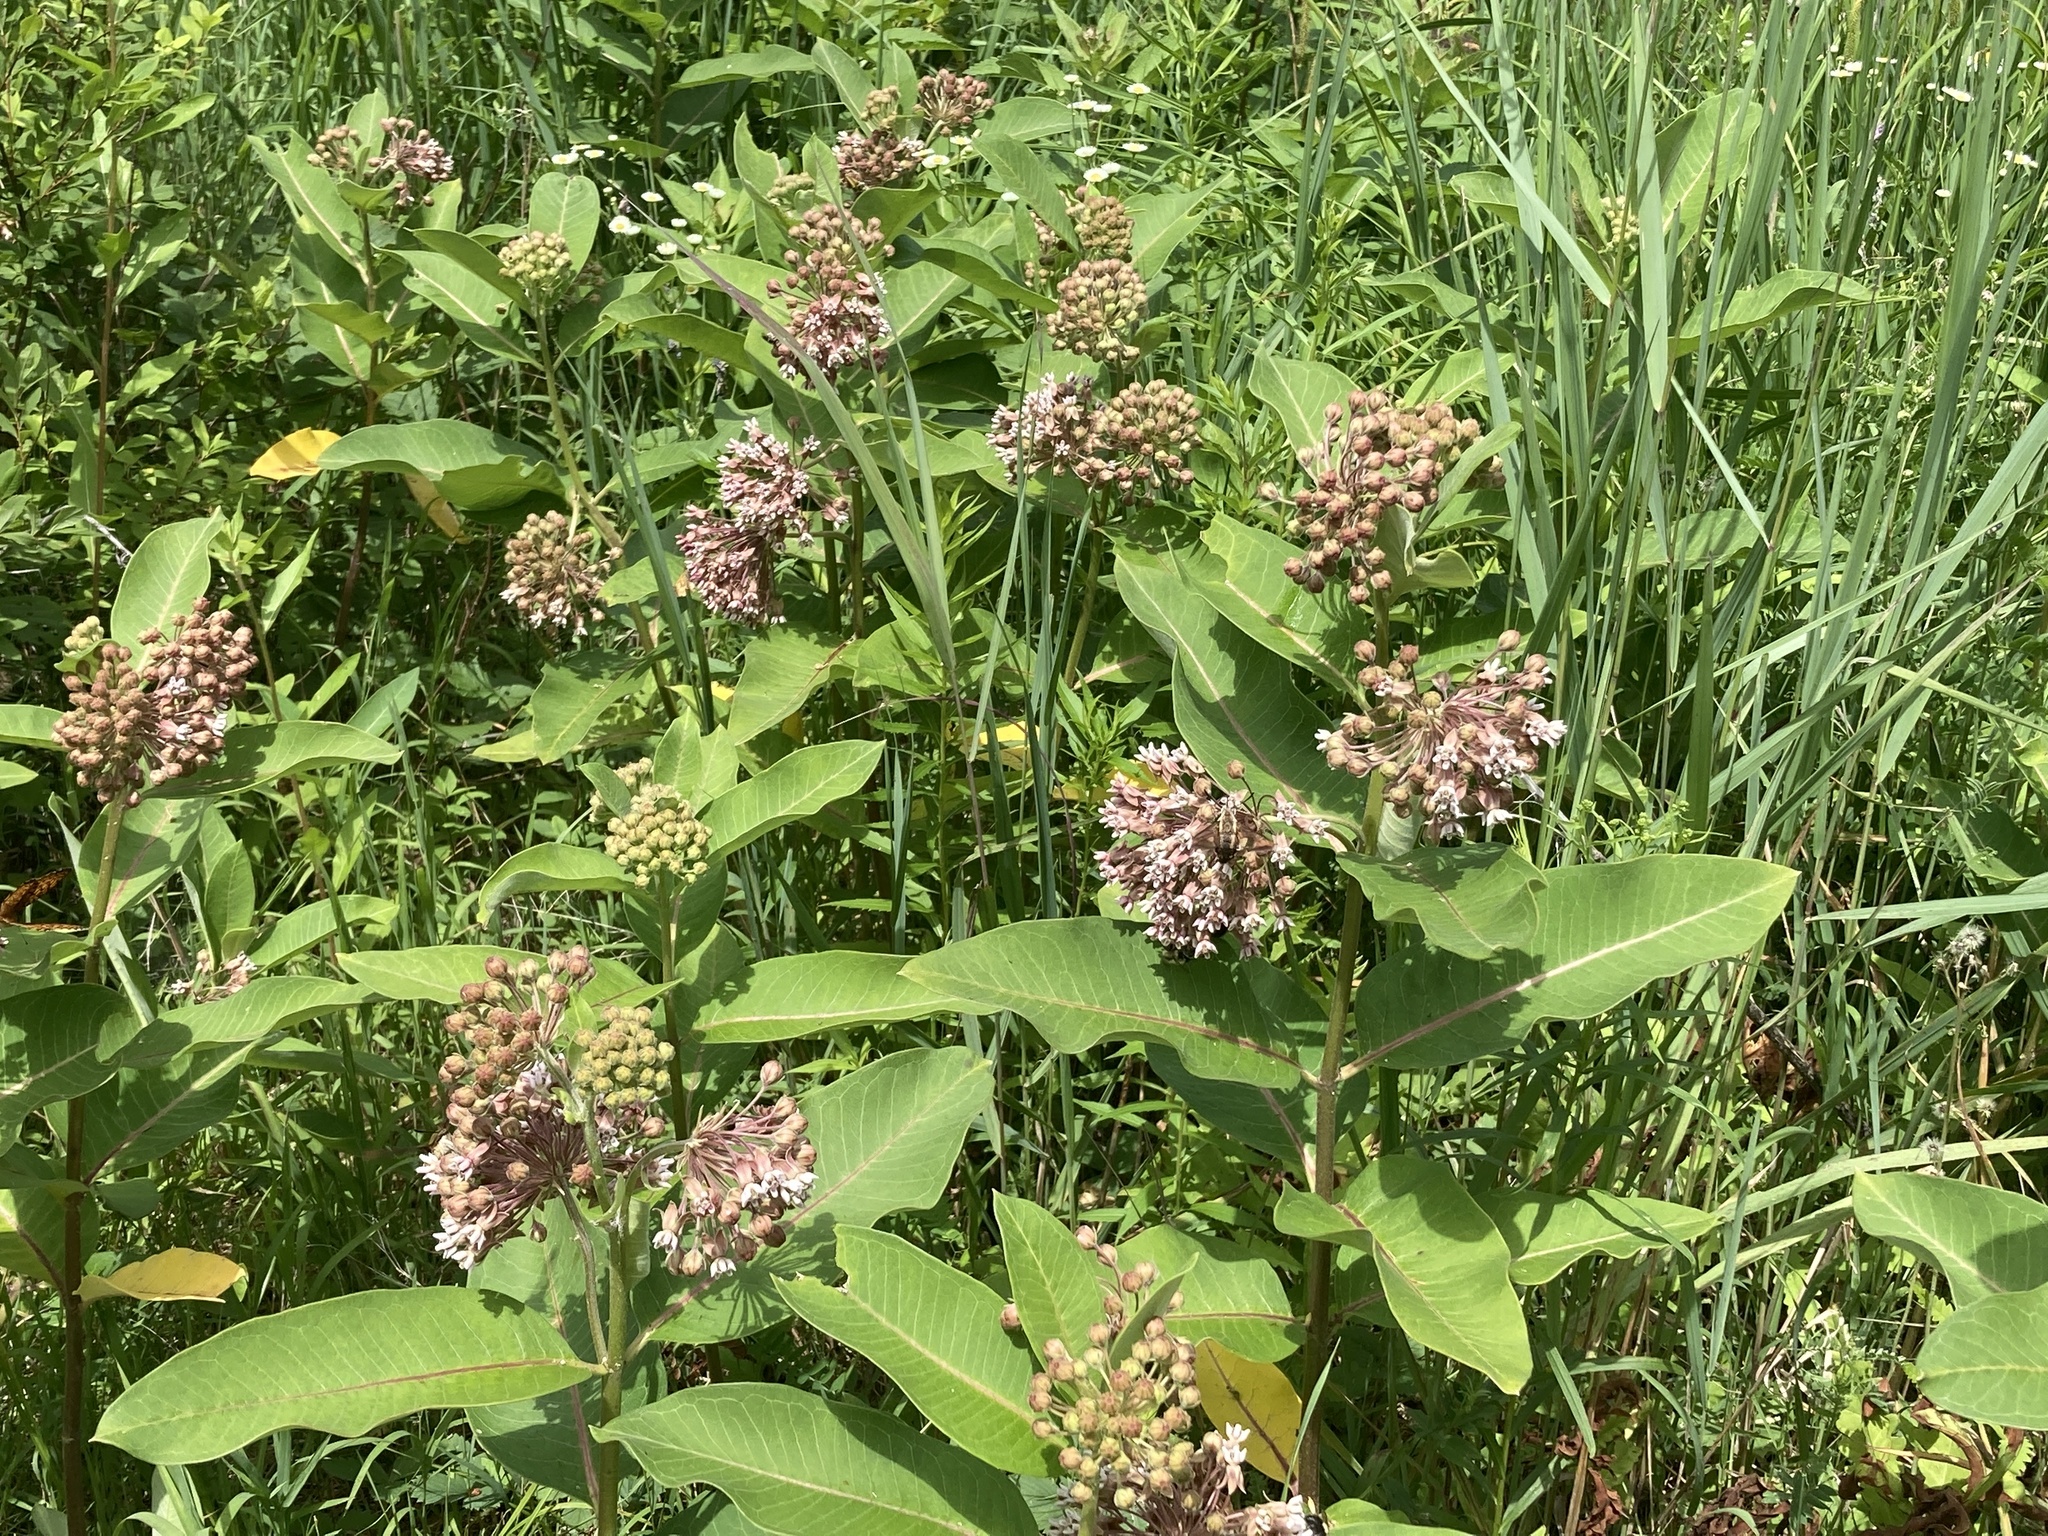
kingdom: Plantae
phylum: Tracheophyta
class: Magnoliopsida
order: Gentianales
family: Apocynaceae
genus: Asclepias
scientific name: Asclepias syriaca
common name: Common milkweed
